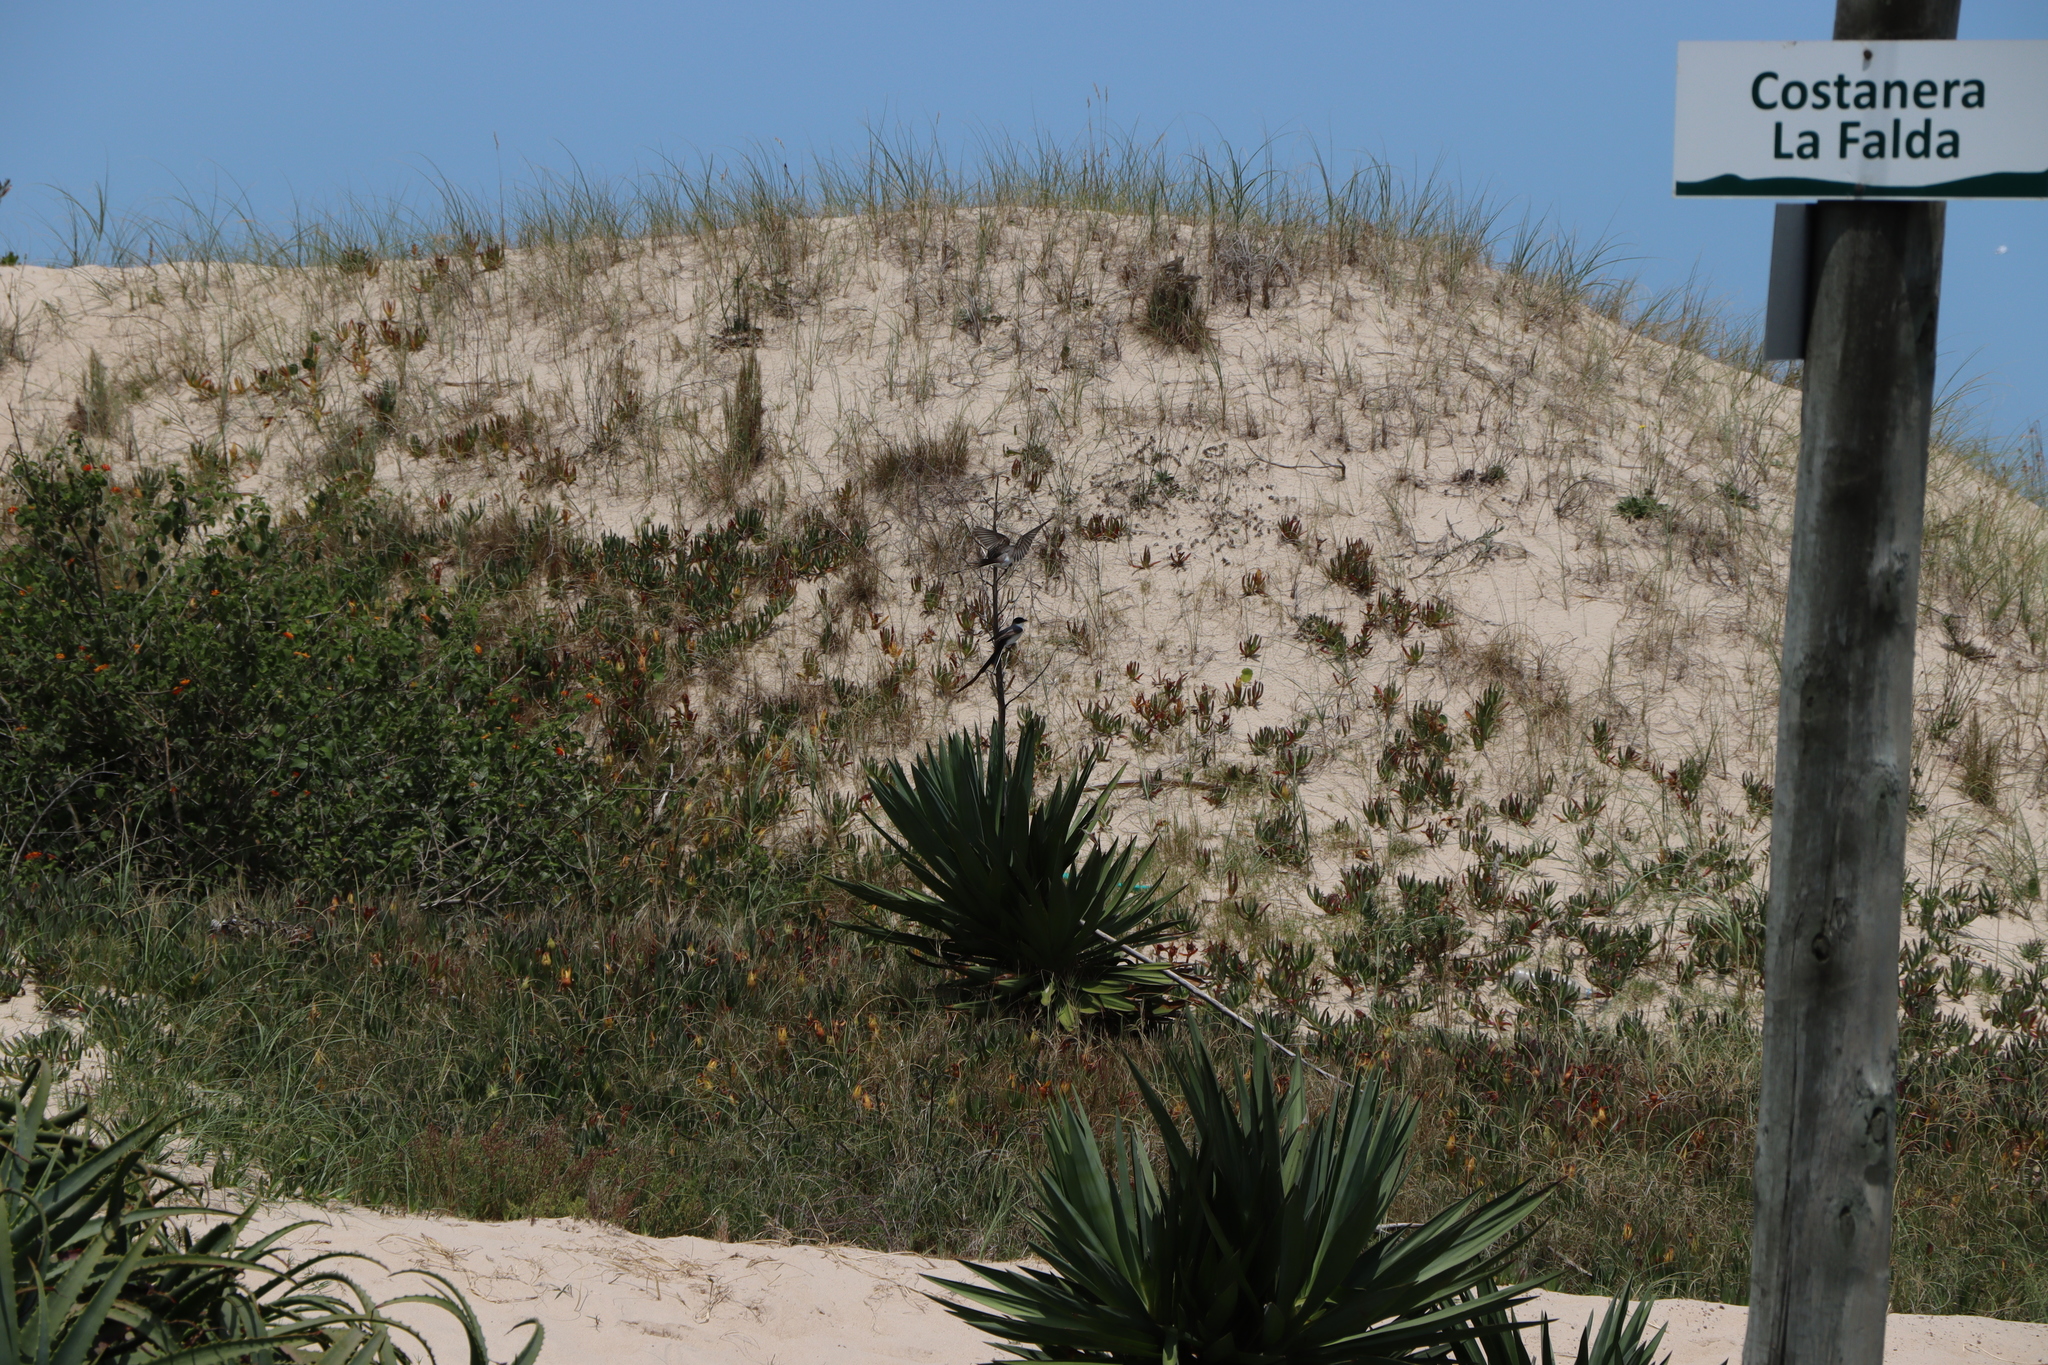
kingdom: Animalia
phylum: Chordata
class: Aves
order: Passeriformes
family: Tyrannidae
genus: Tyrannus
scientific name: Tyrannus savana
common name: Fork-tailed flycatcher
